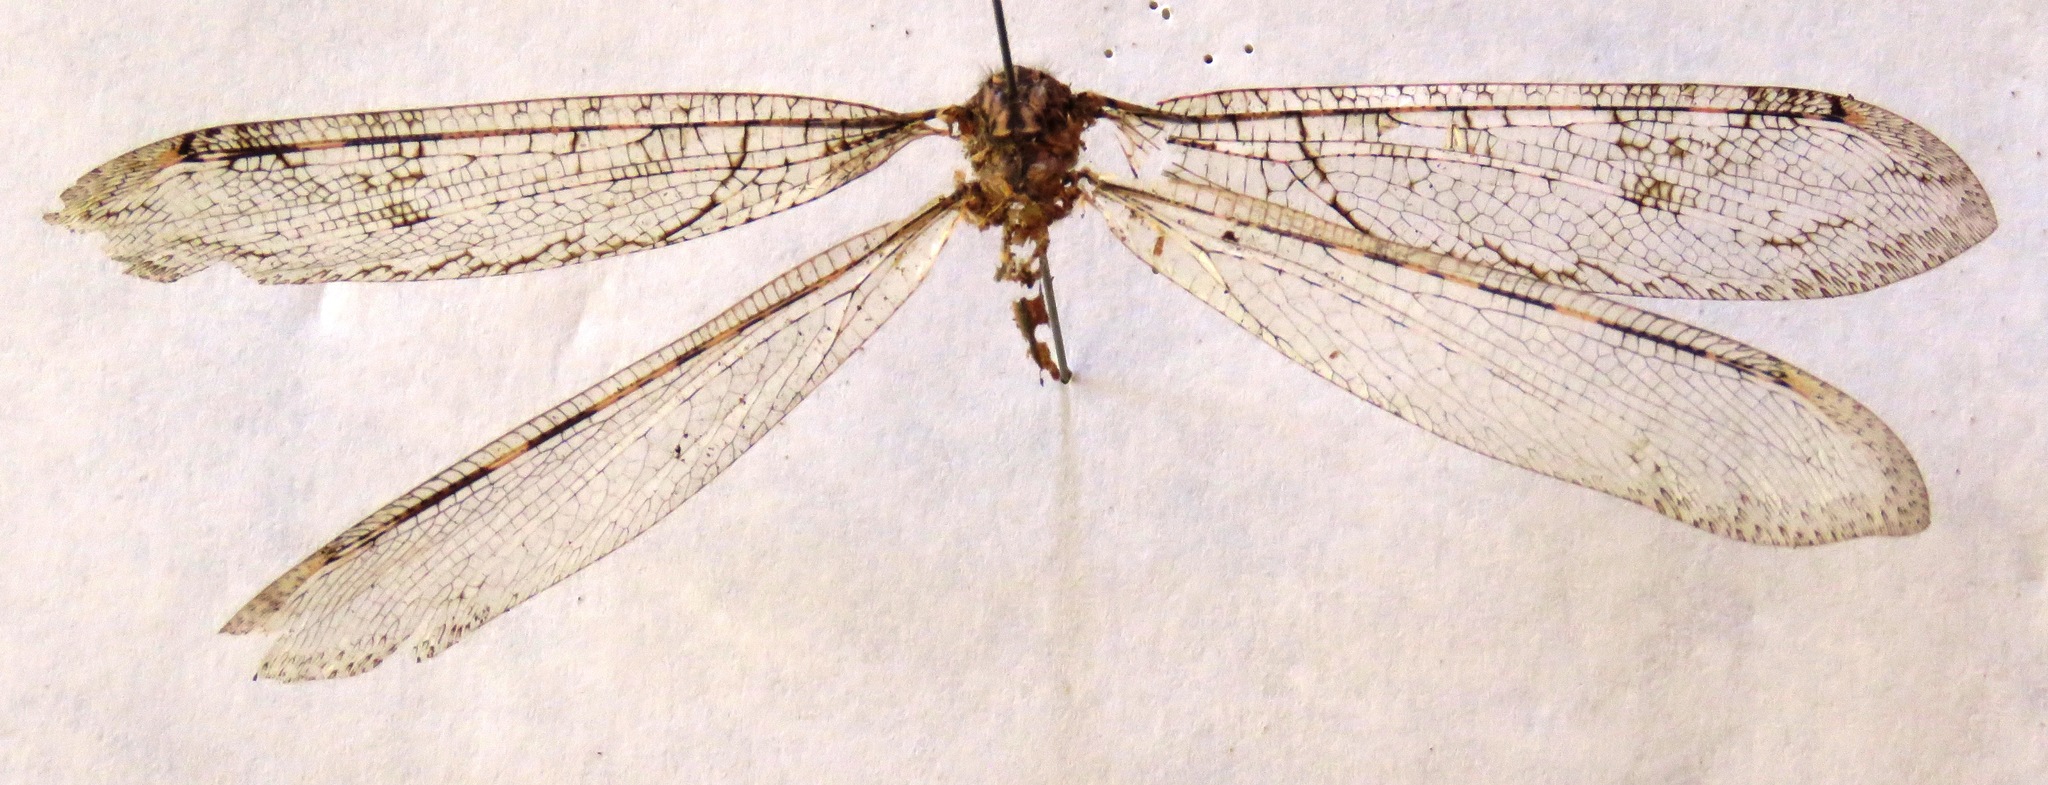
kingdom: Animalia
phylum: Arthropoda
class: Insecta
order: Neuroptera
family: Myrmeleontidae
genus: Vella
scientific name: Vella fallax
